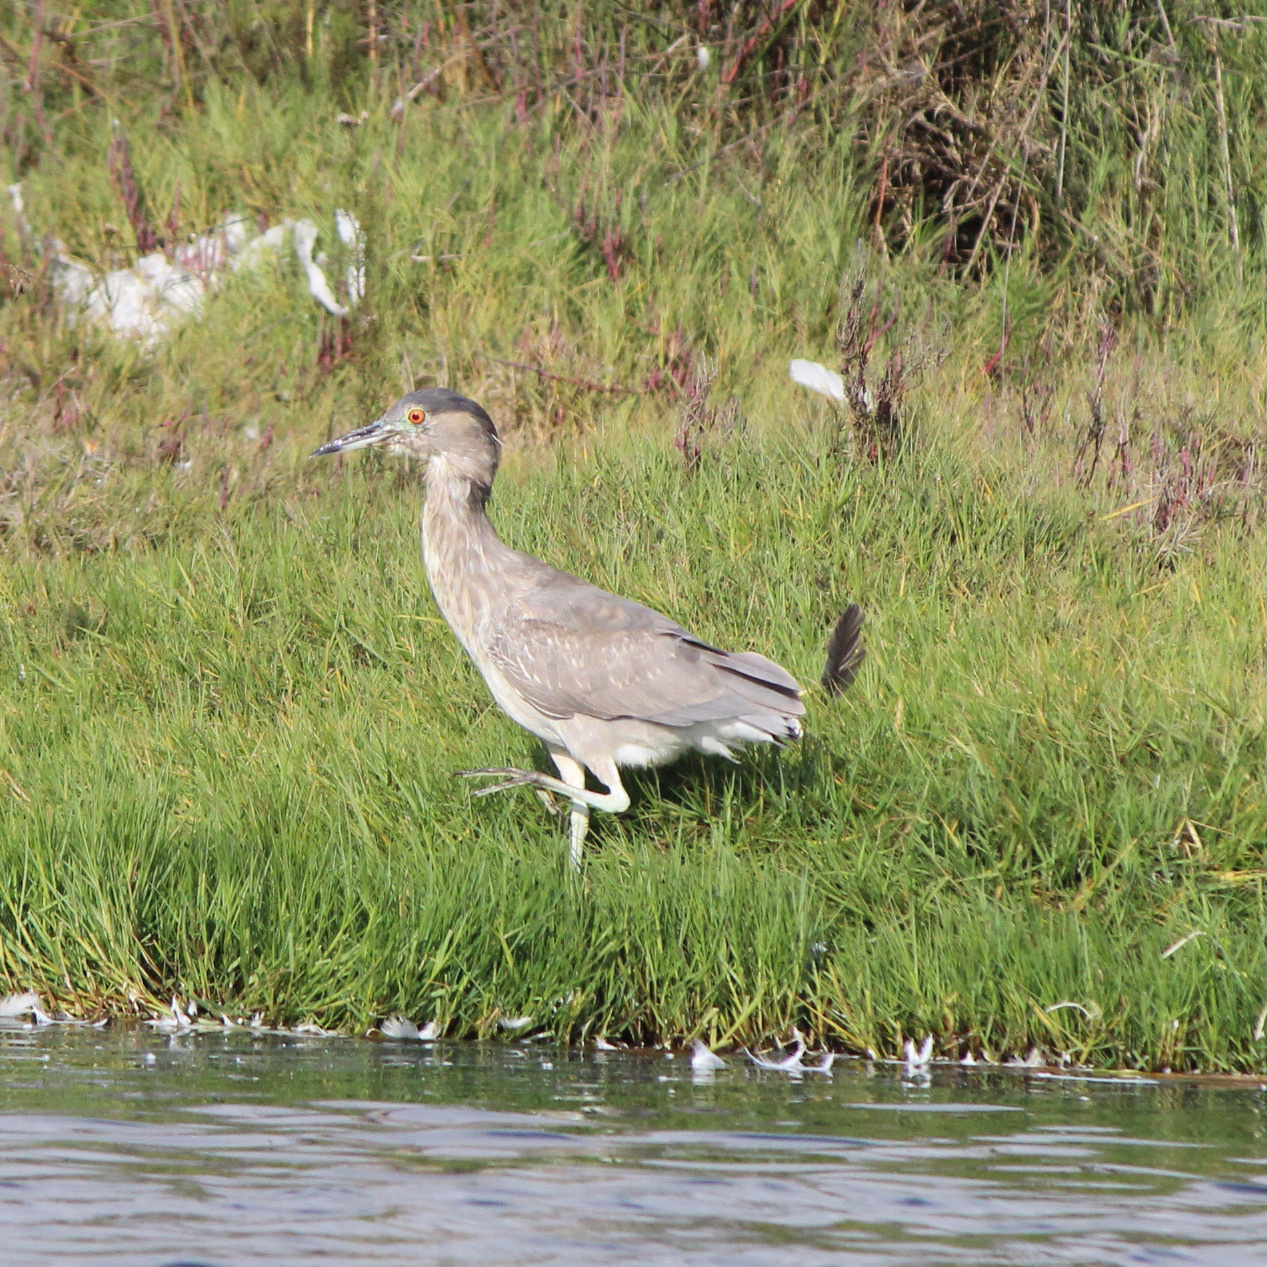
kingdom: Animalia
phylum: Chordata
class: Aves
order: Pelecaniformes
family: Ardeidae
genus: Nycticorax
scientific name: Nycticorax nycticorax
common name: Black-crowned night heron
